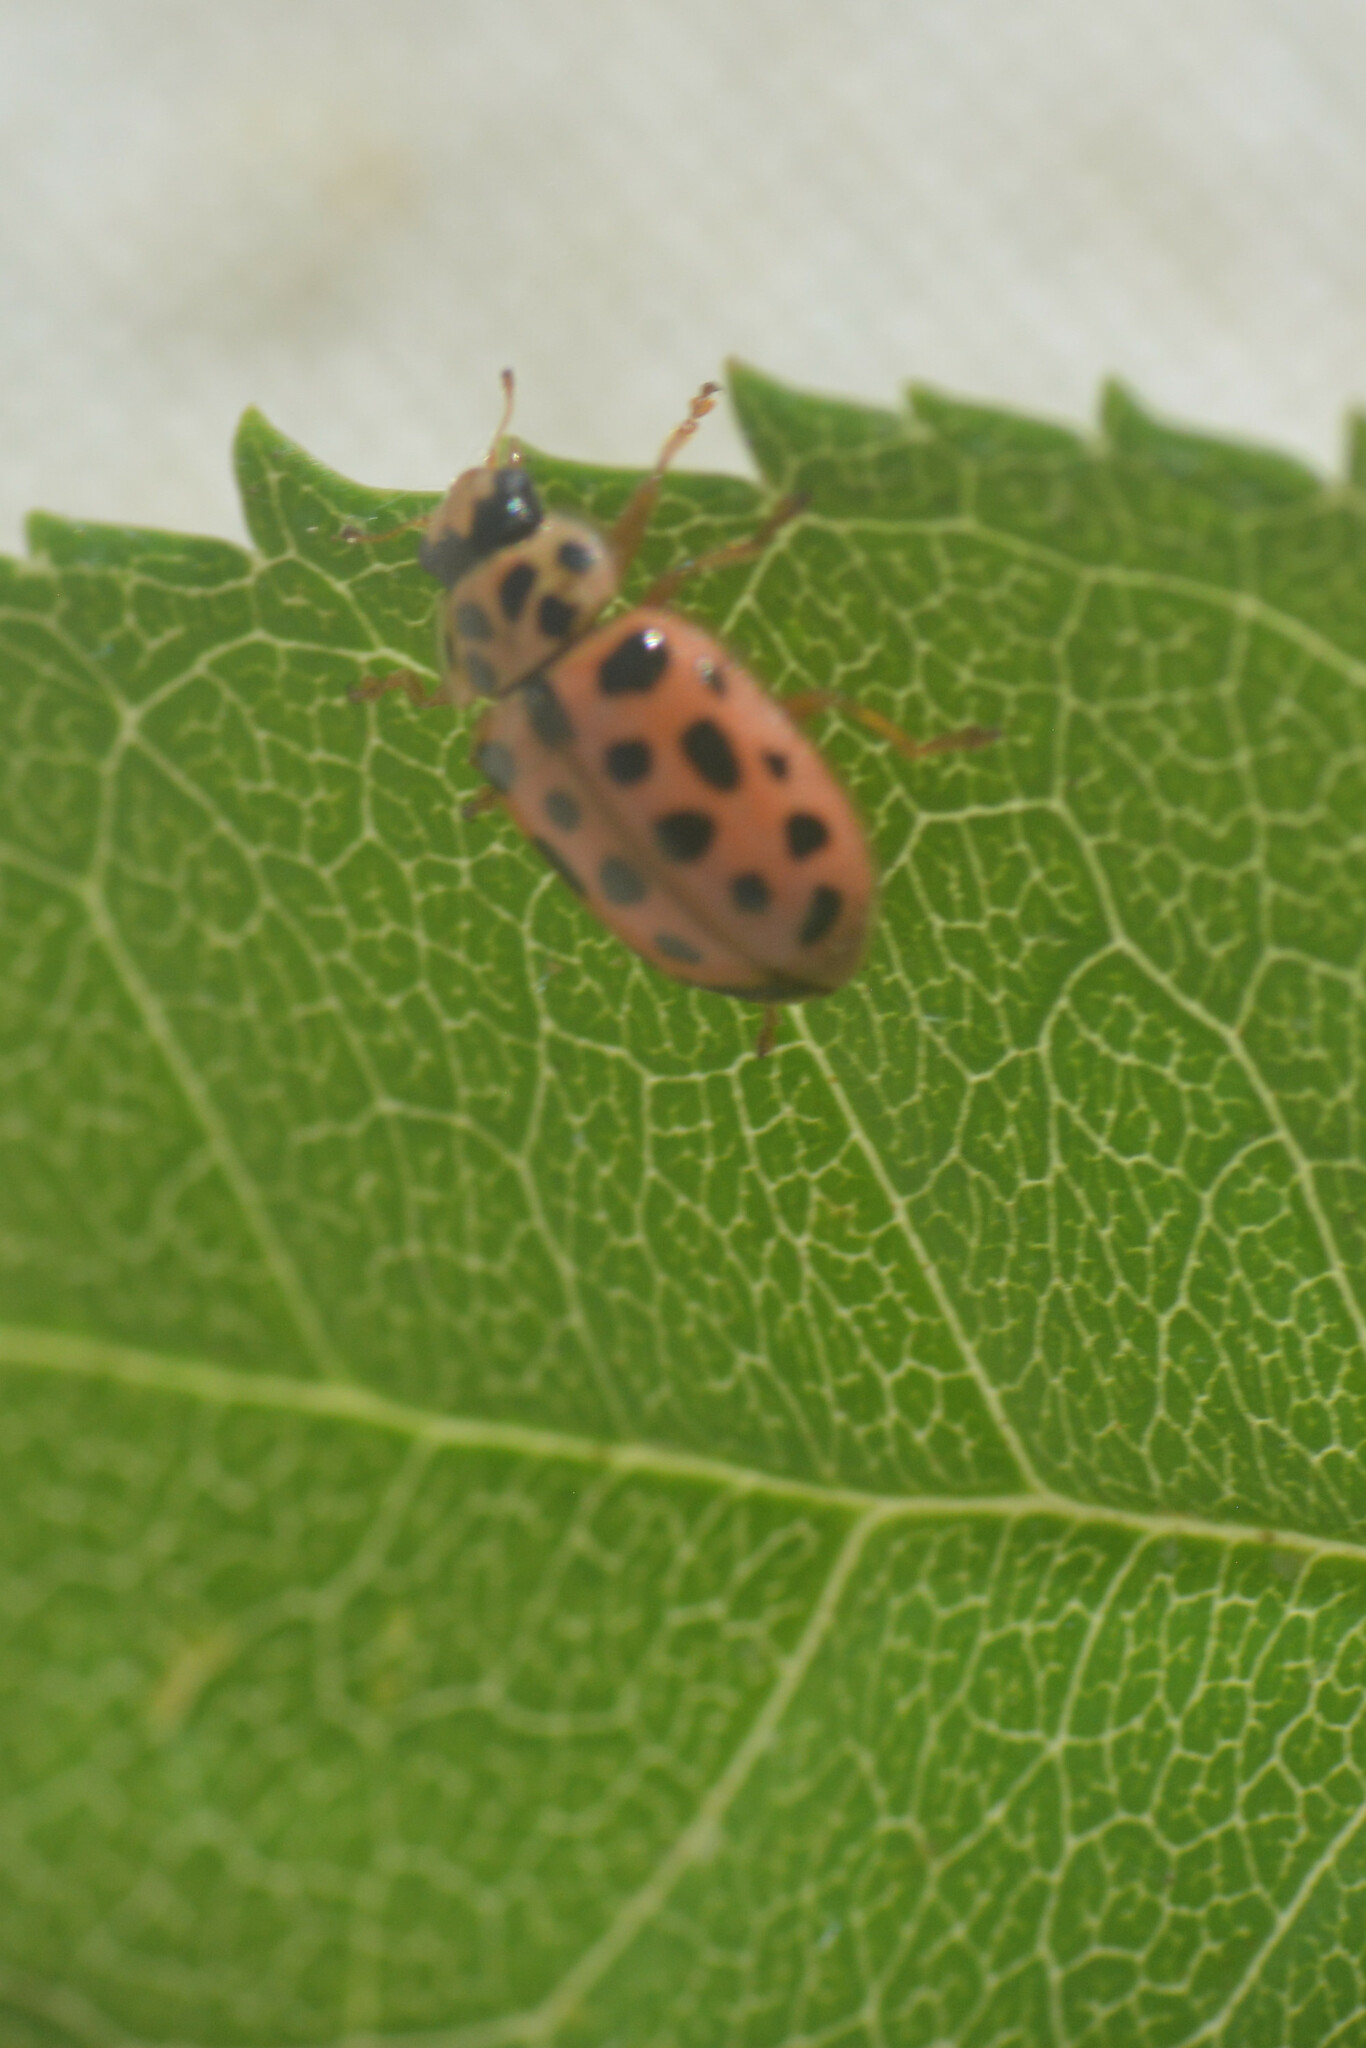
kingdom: Animalia
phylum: Arthropoda
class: Insecta
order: Coleoptera
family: Coccinellidae
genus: Anisosticta
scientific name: Anisosticta novemdecimpunctata
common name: Water ladybird
